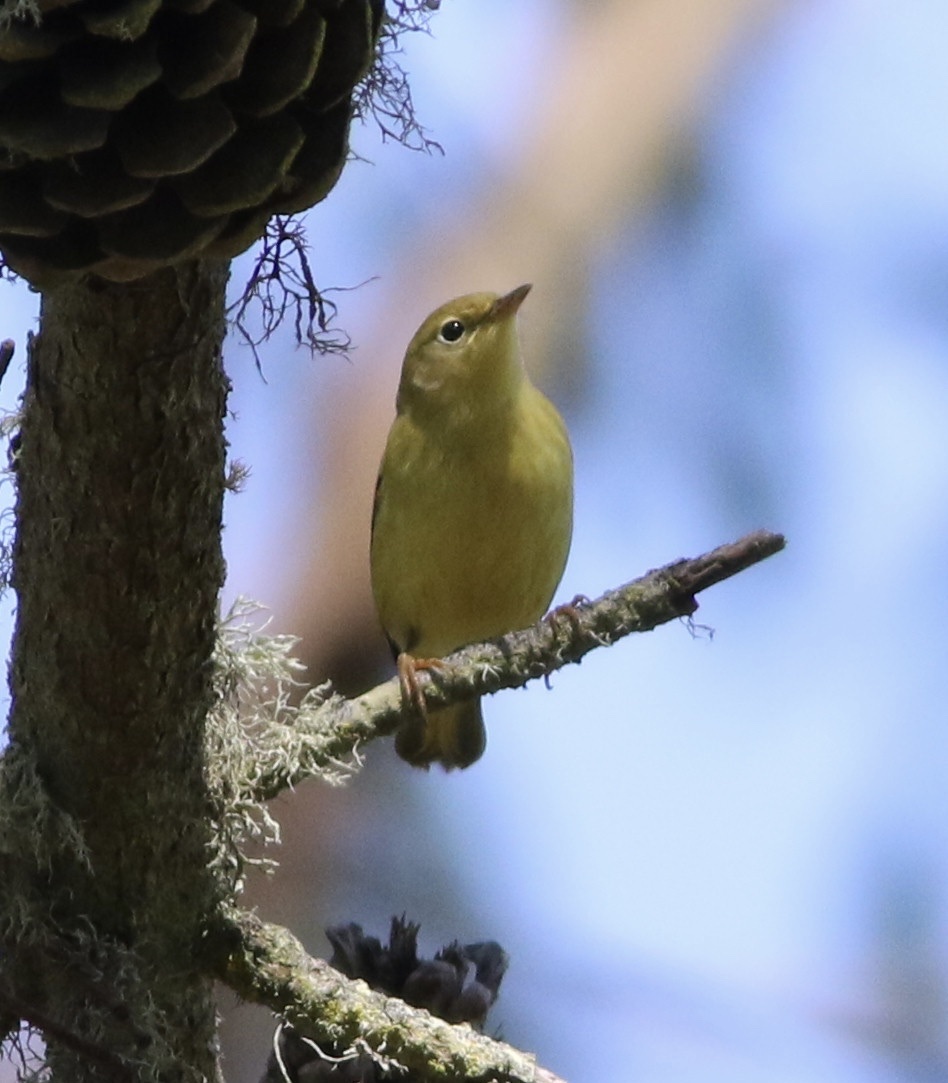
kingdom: Animalia
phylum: Chordata
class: Aves
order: Passeriformes
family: Parulidae
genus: Setophaga
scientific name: Setophaga petechia
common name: Yellow warbler
